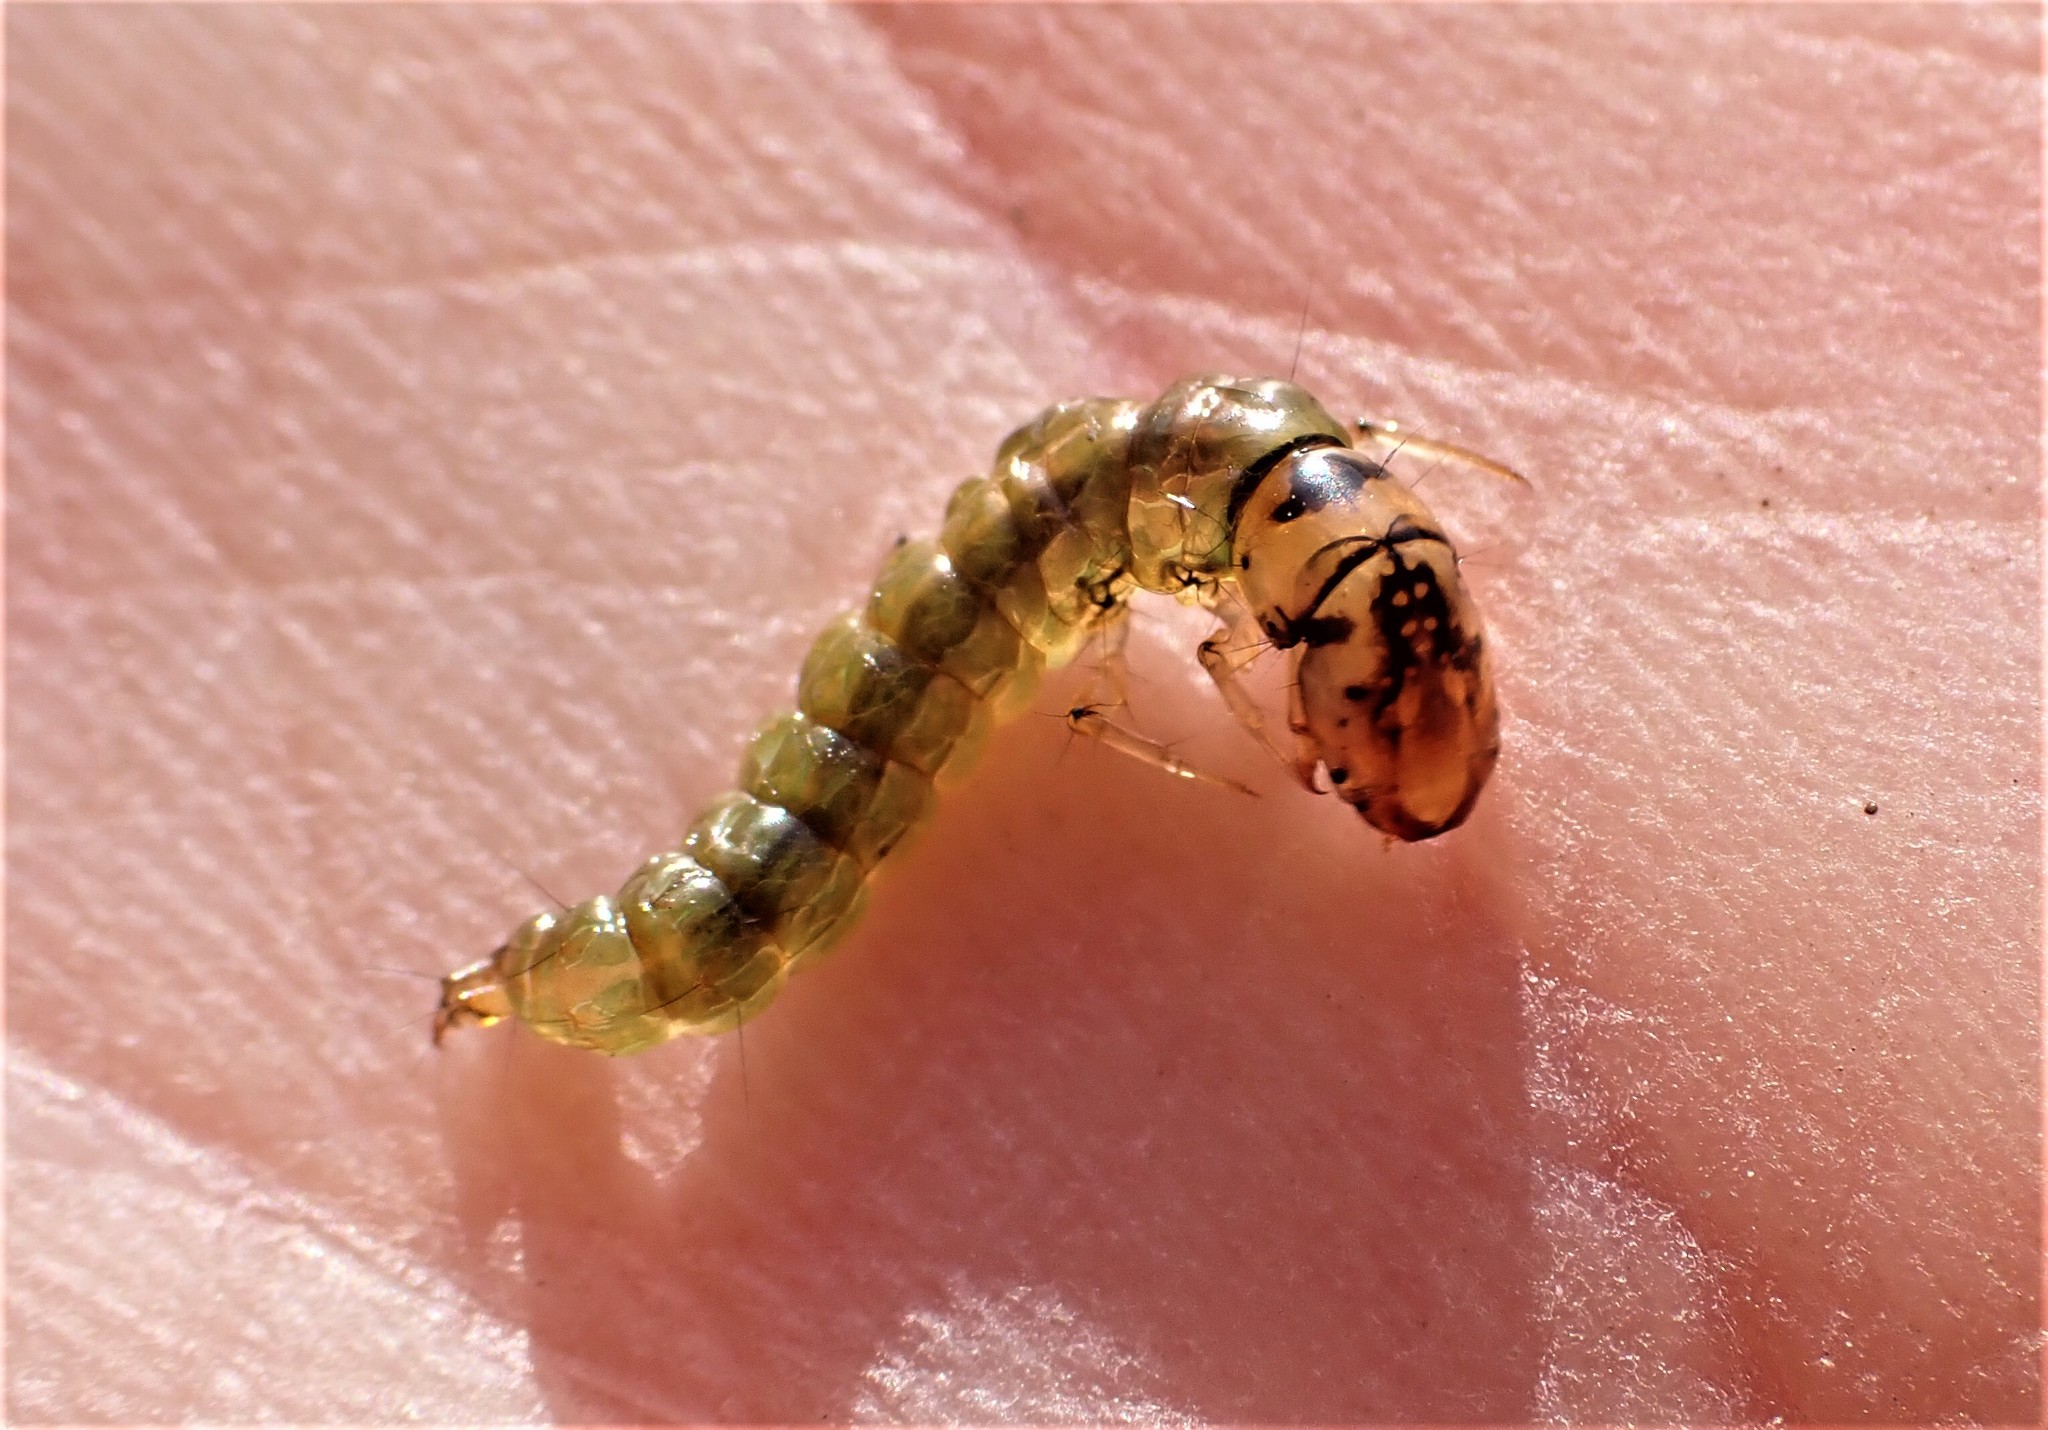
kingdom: Animalia
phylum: Arthropoda
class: Insecta
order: Trichoptera
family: Hydrobiosidae
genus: Hydrobiosis
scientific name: Hydrobiosis parumbripennis
